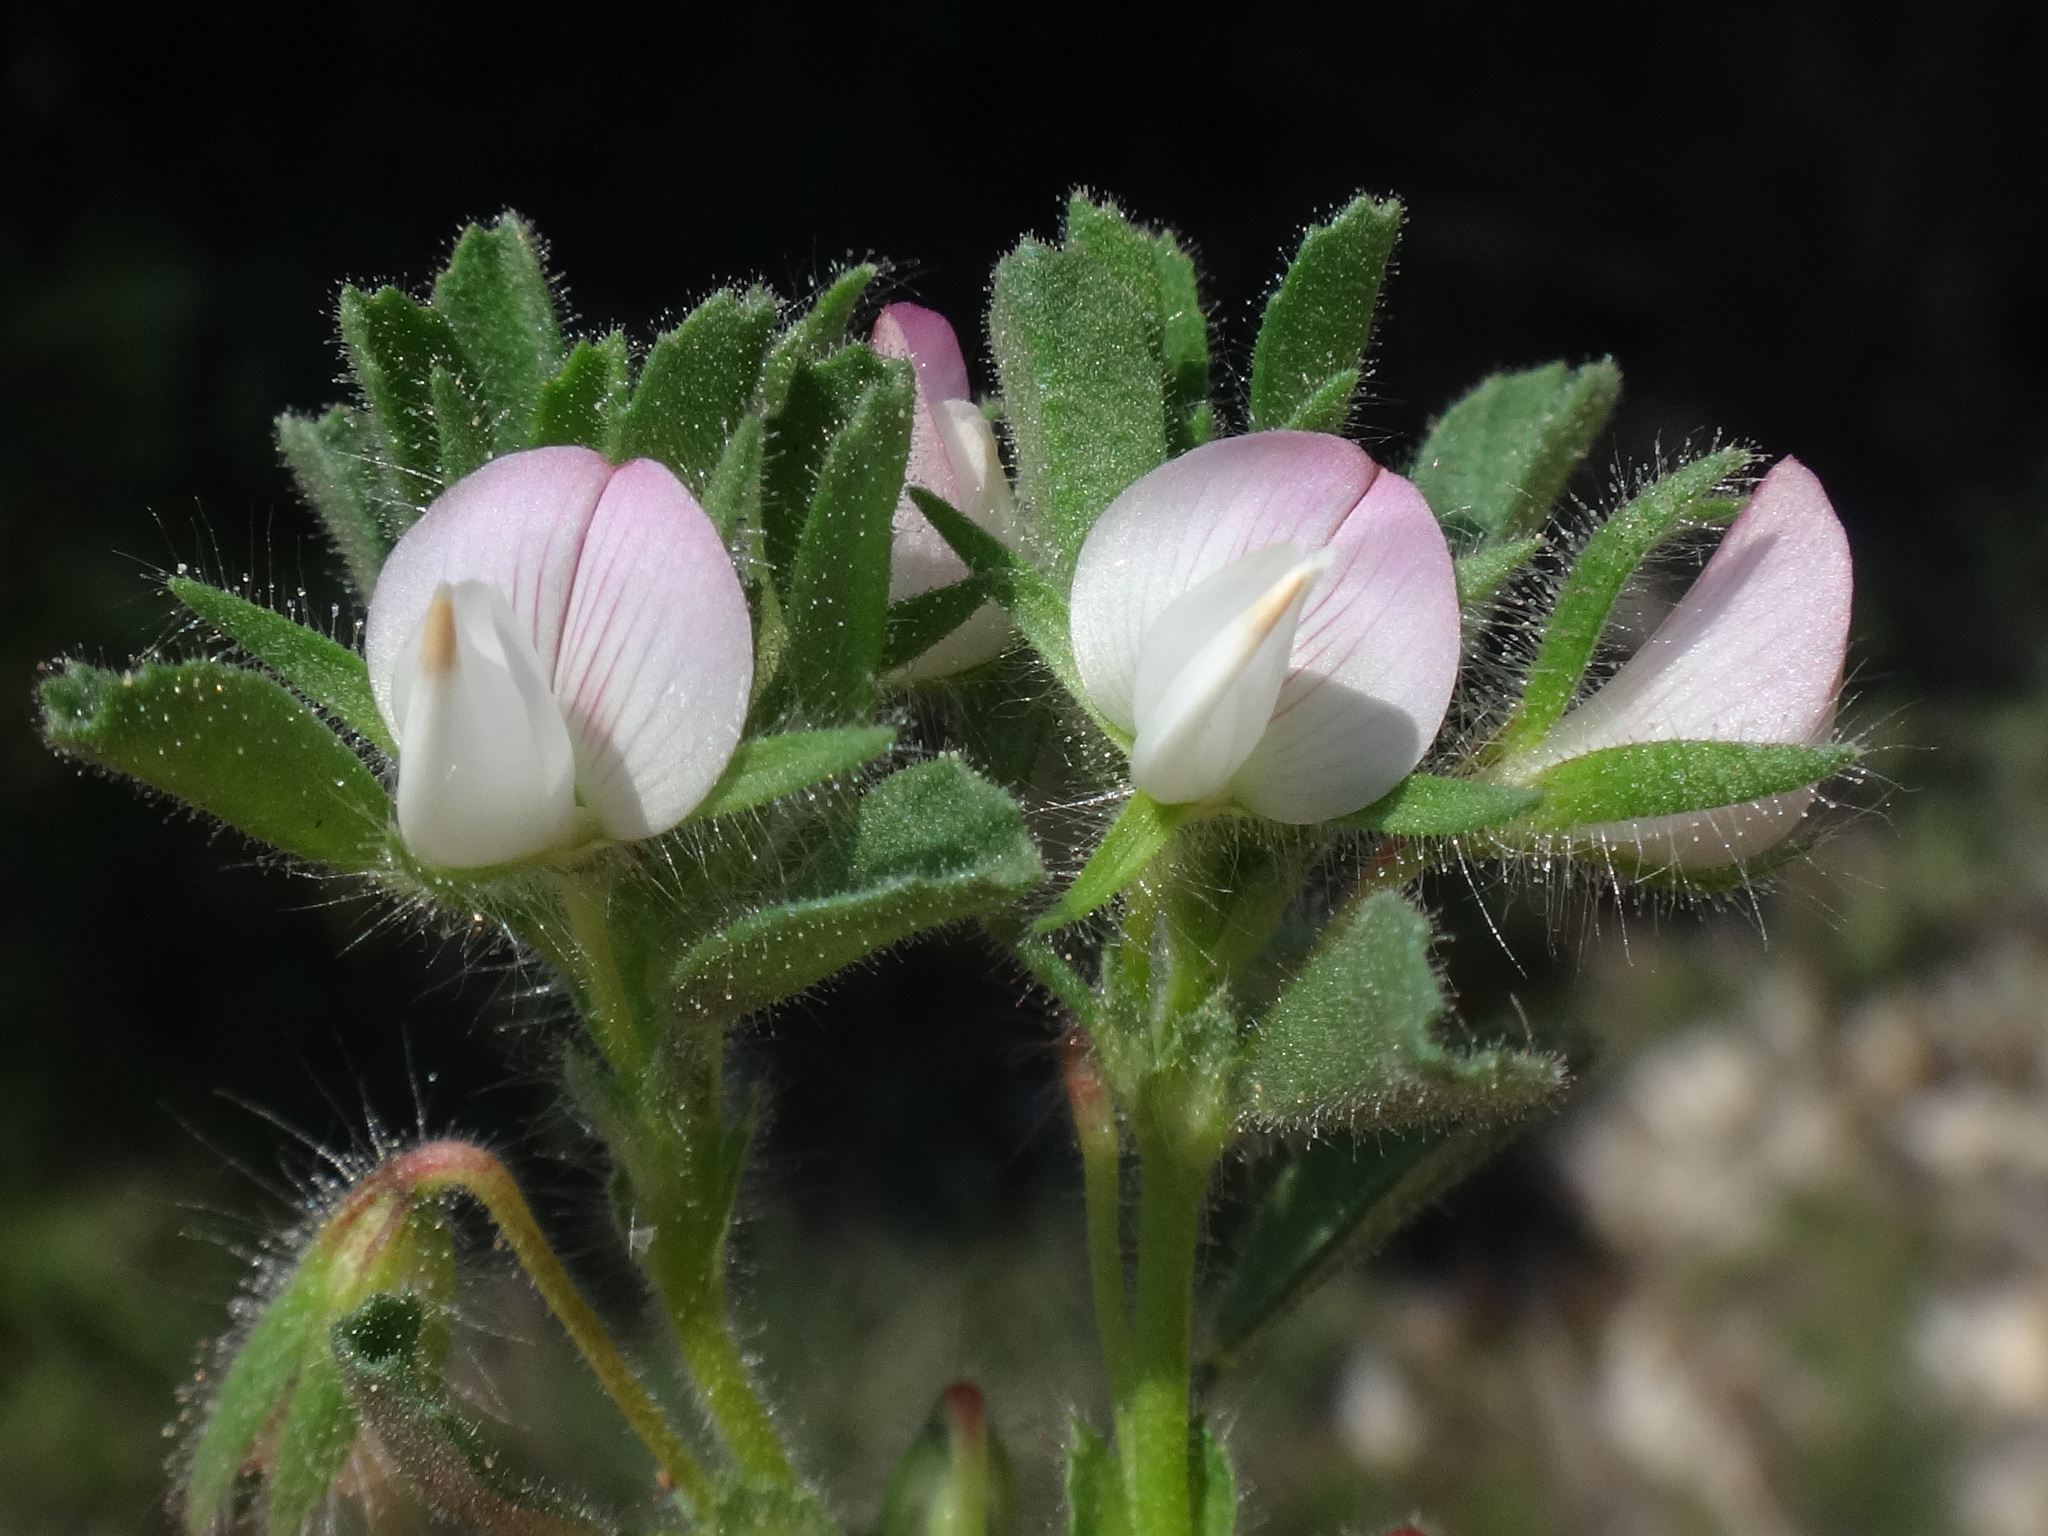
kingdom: Plantae
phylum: Tracheophyta
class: Magnoliopsida
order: Fabales
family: Fabaceae
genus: Ononis
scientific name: Ononis reclinata
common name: Small restharrow
